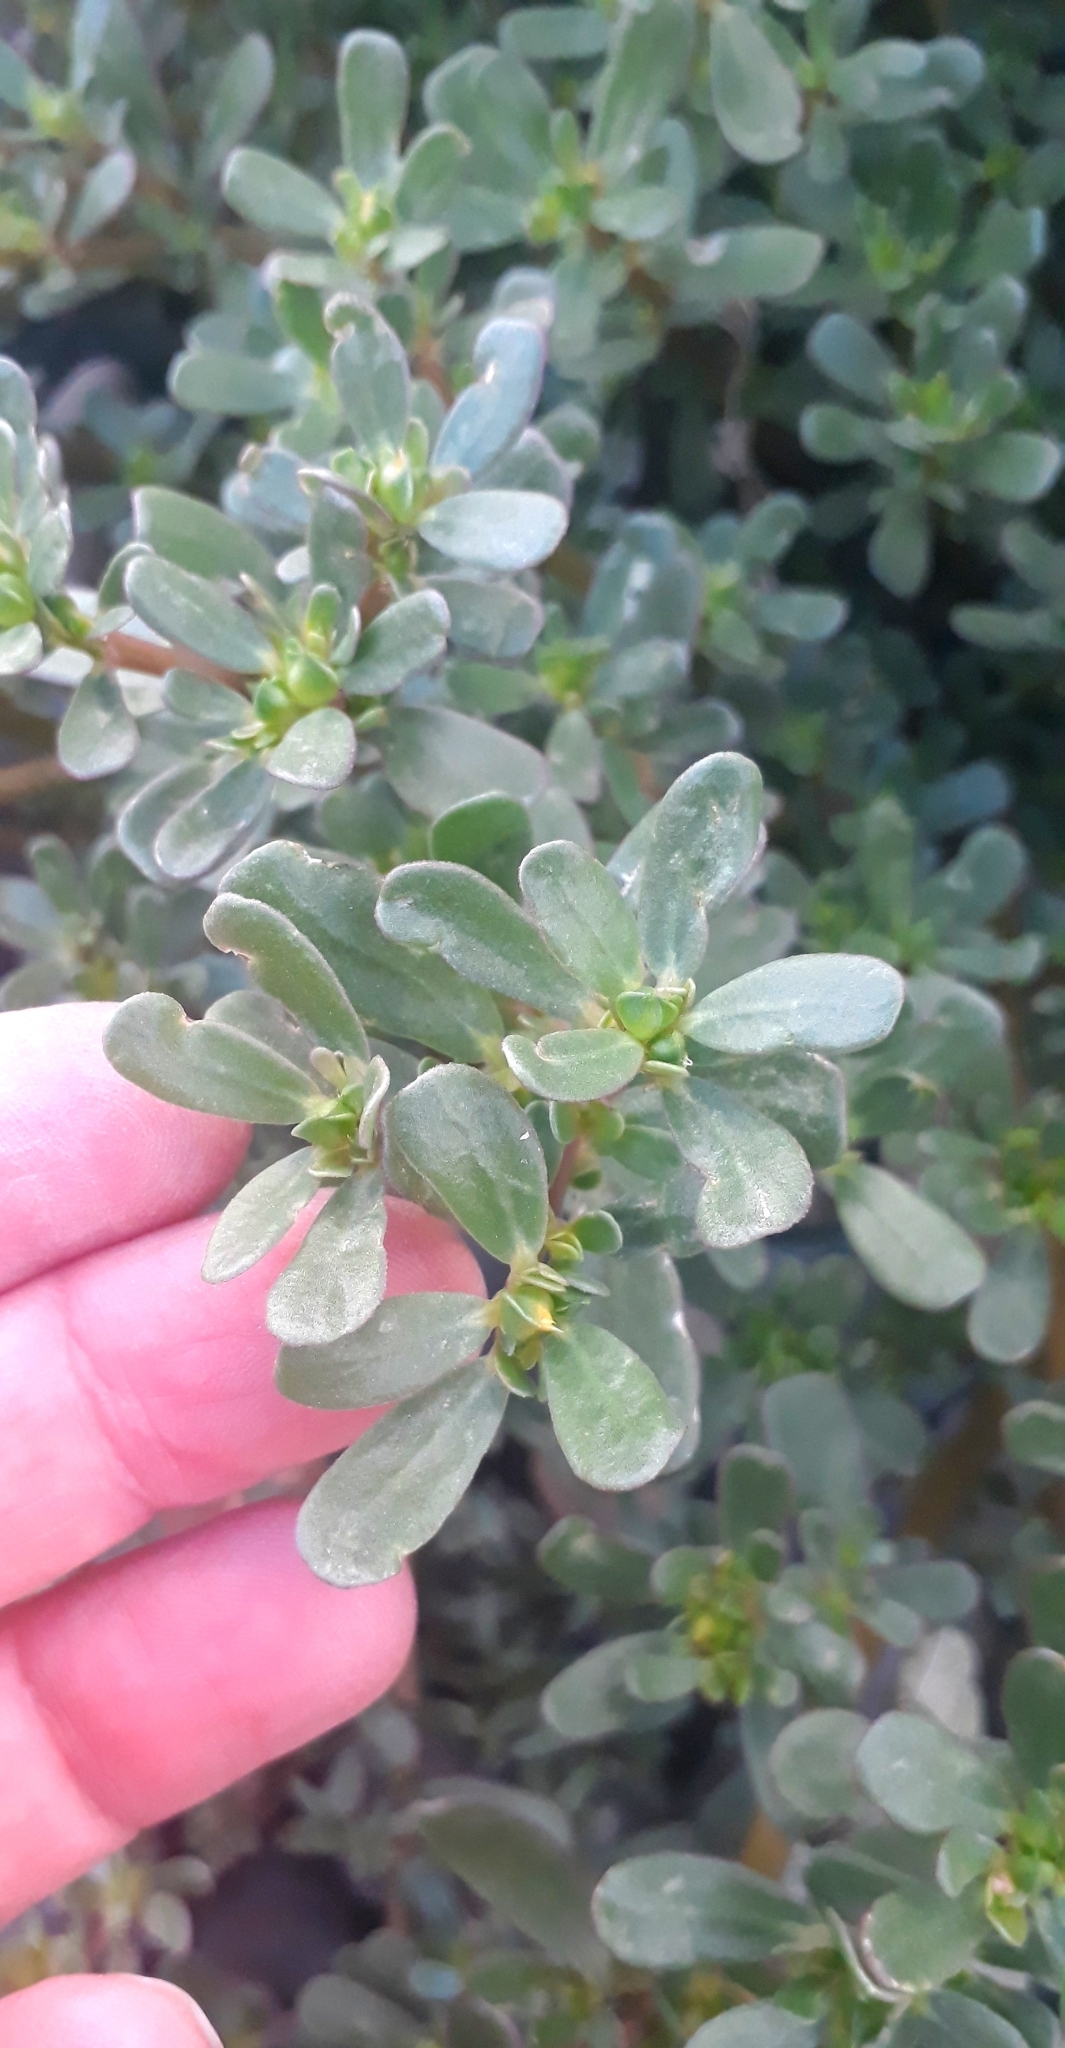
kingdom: Plantae
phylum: Tracheophyta
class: Magnoliopsida
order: Caryophyllales
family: Portulacaceae
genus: Portulaca
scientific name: Portulaca oleracea
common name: Common purslane
